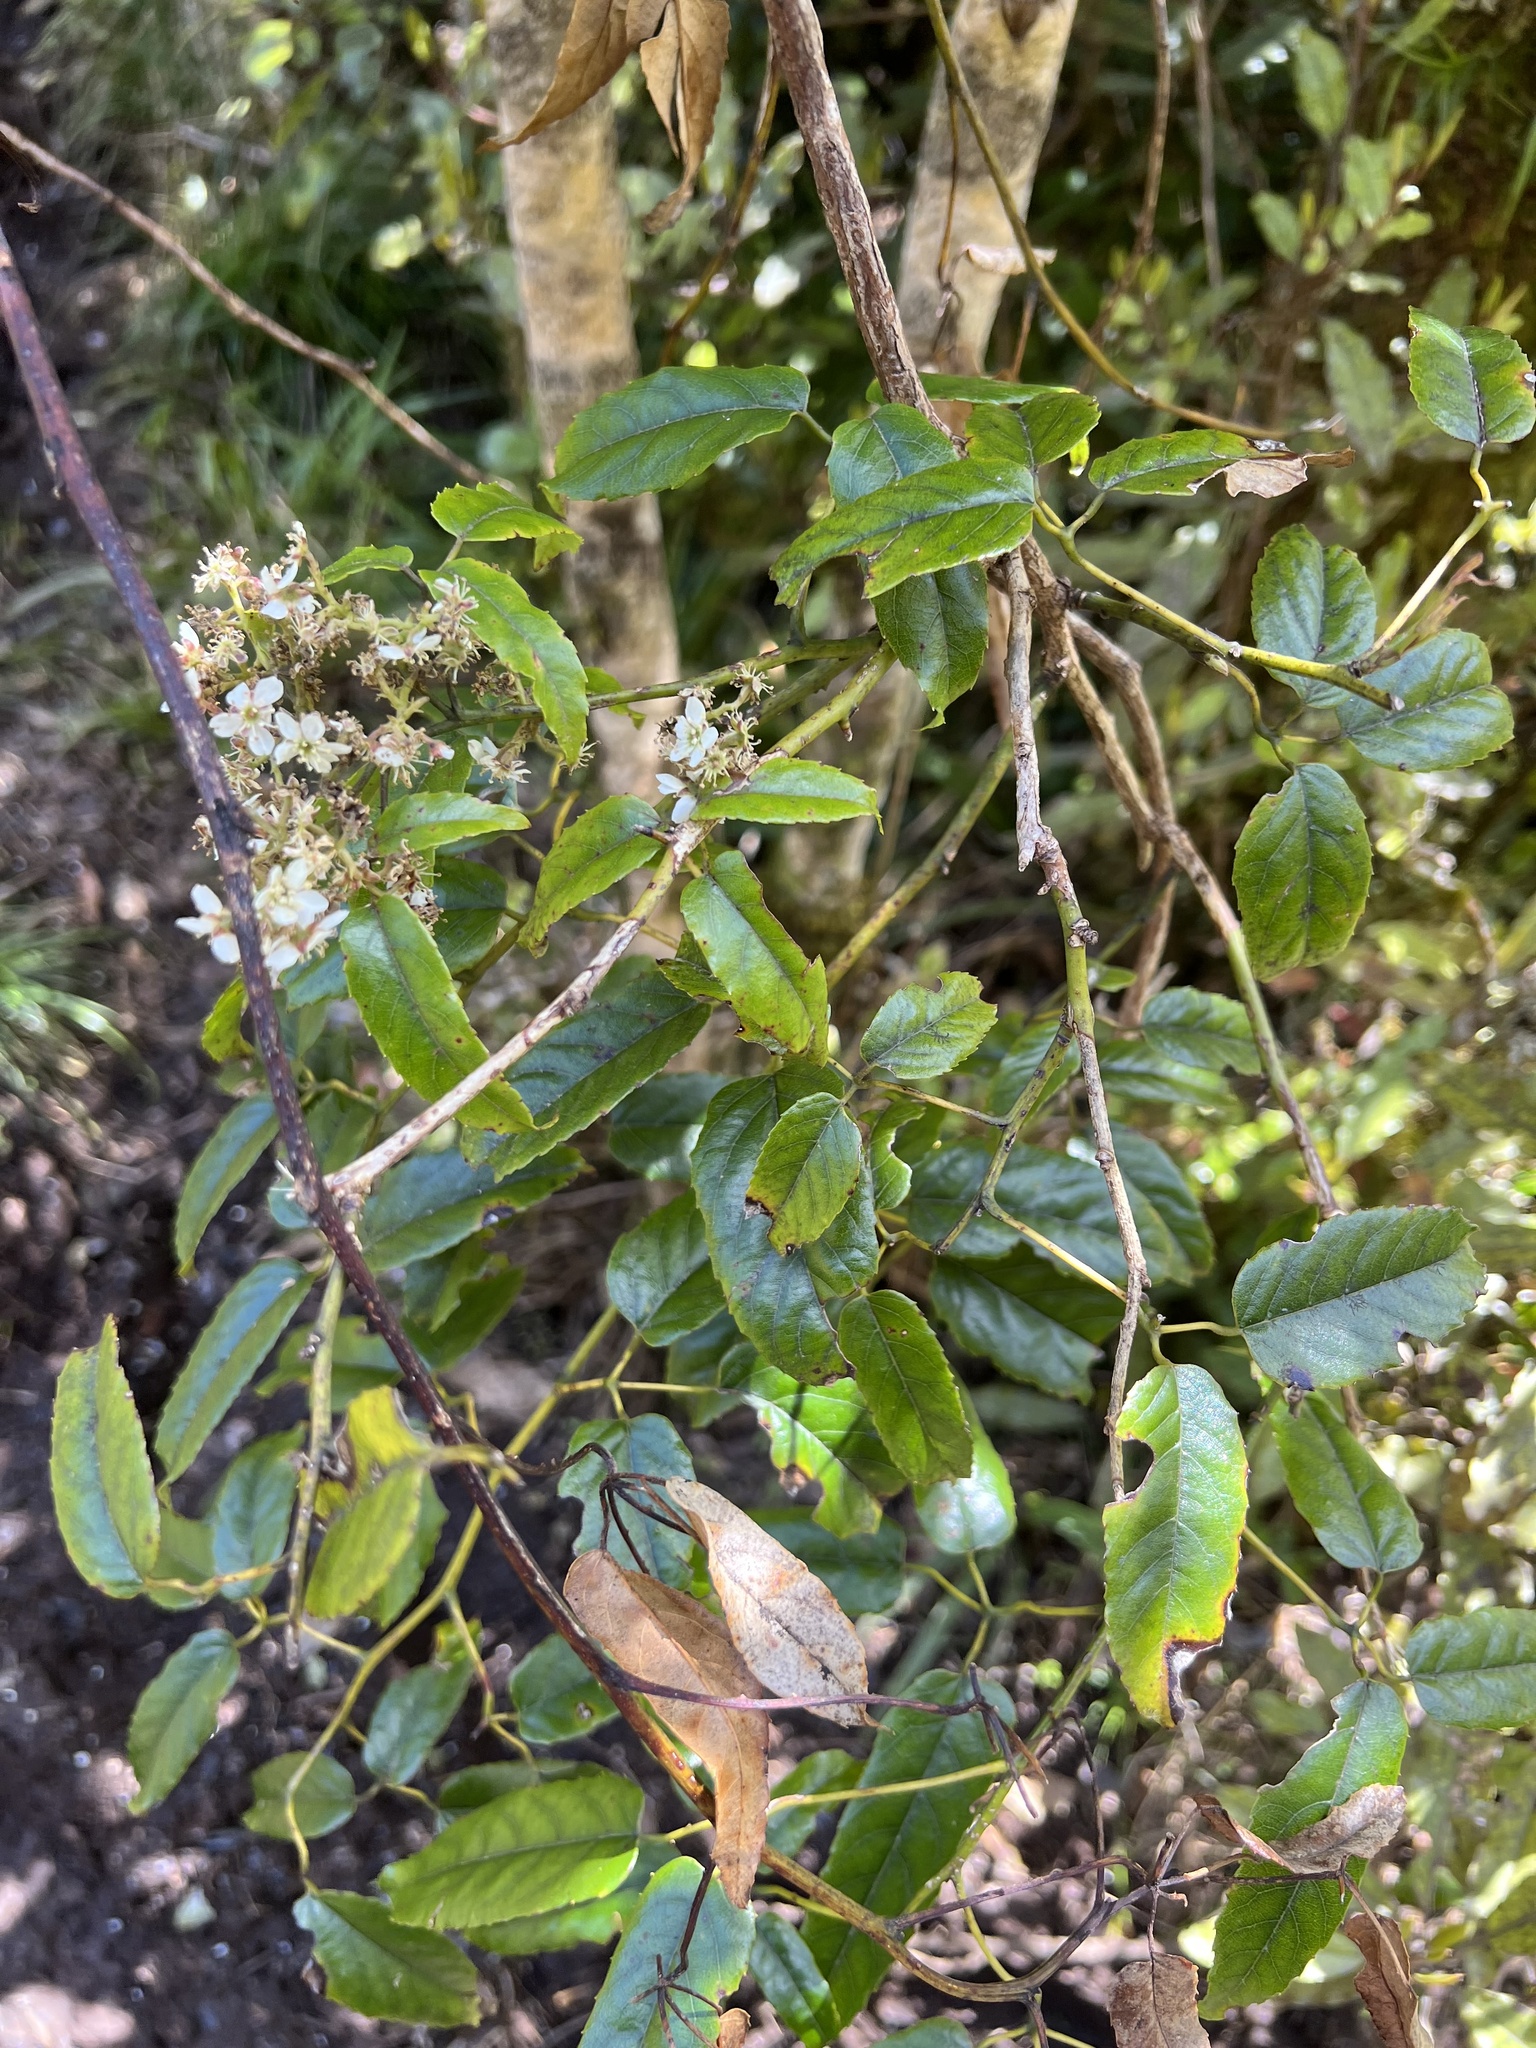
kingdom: Plantae
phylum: Tracheophyta
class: Magnoliopsida
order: Rosales
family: Rosaceae
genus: Rubus
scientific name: Rubus cissoides
